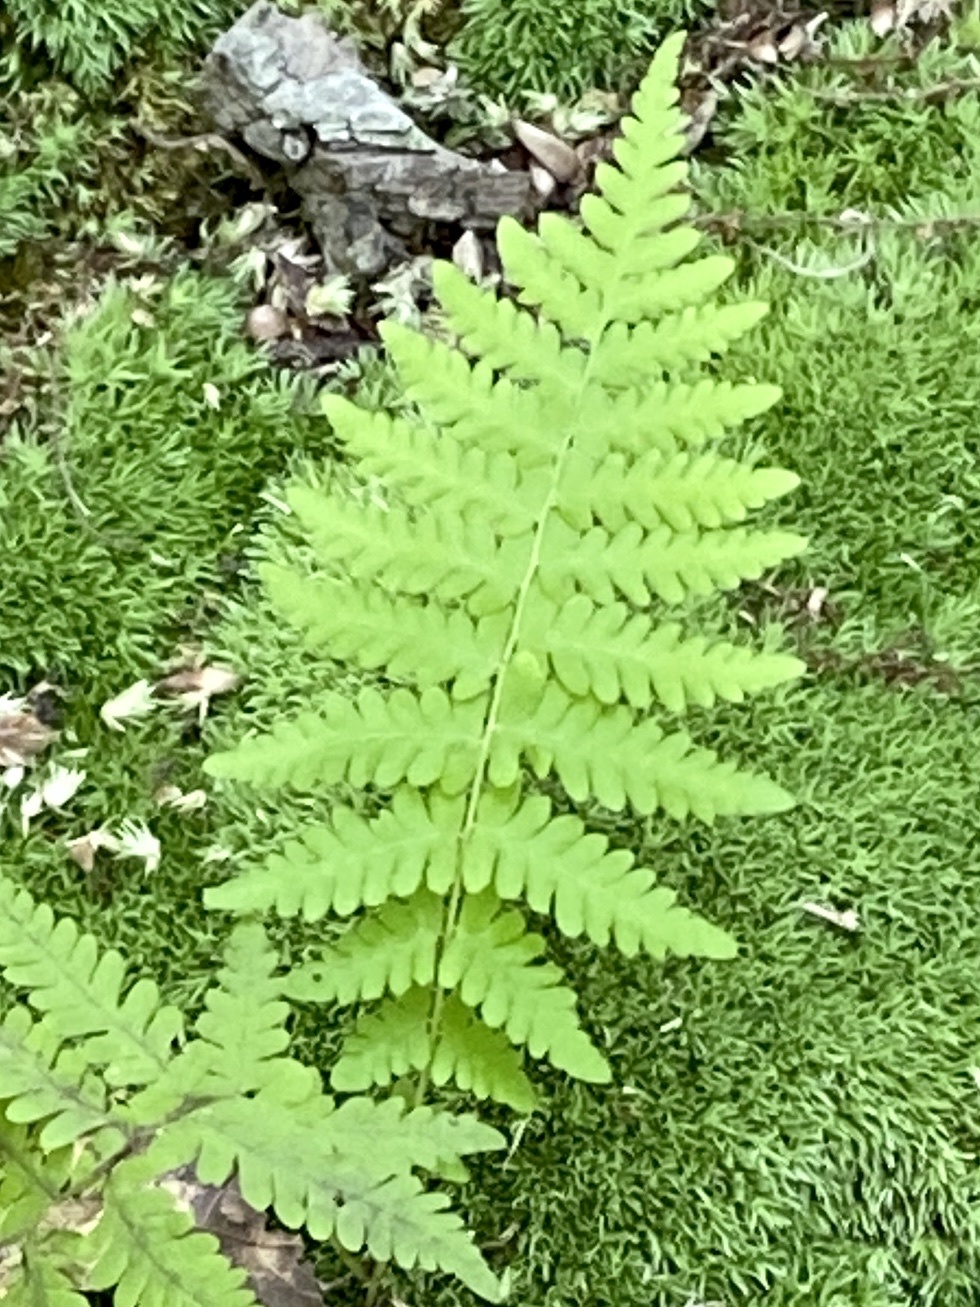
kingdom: Plantae
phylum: Tracheophyta
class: Polypodiopsida
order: Polypodiales
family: Thelypteridaceae
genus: Amauropelta
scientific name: Amauropelta noveboracensis
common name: New york fern
